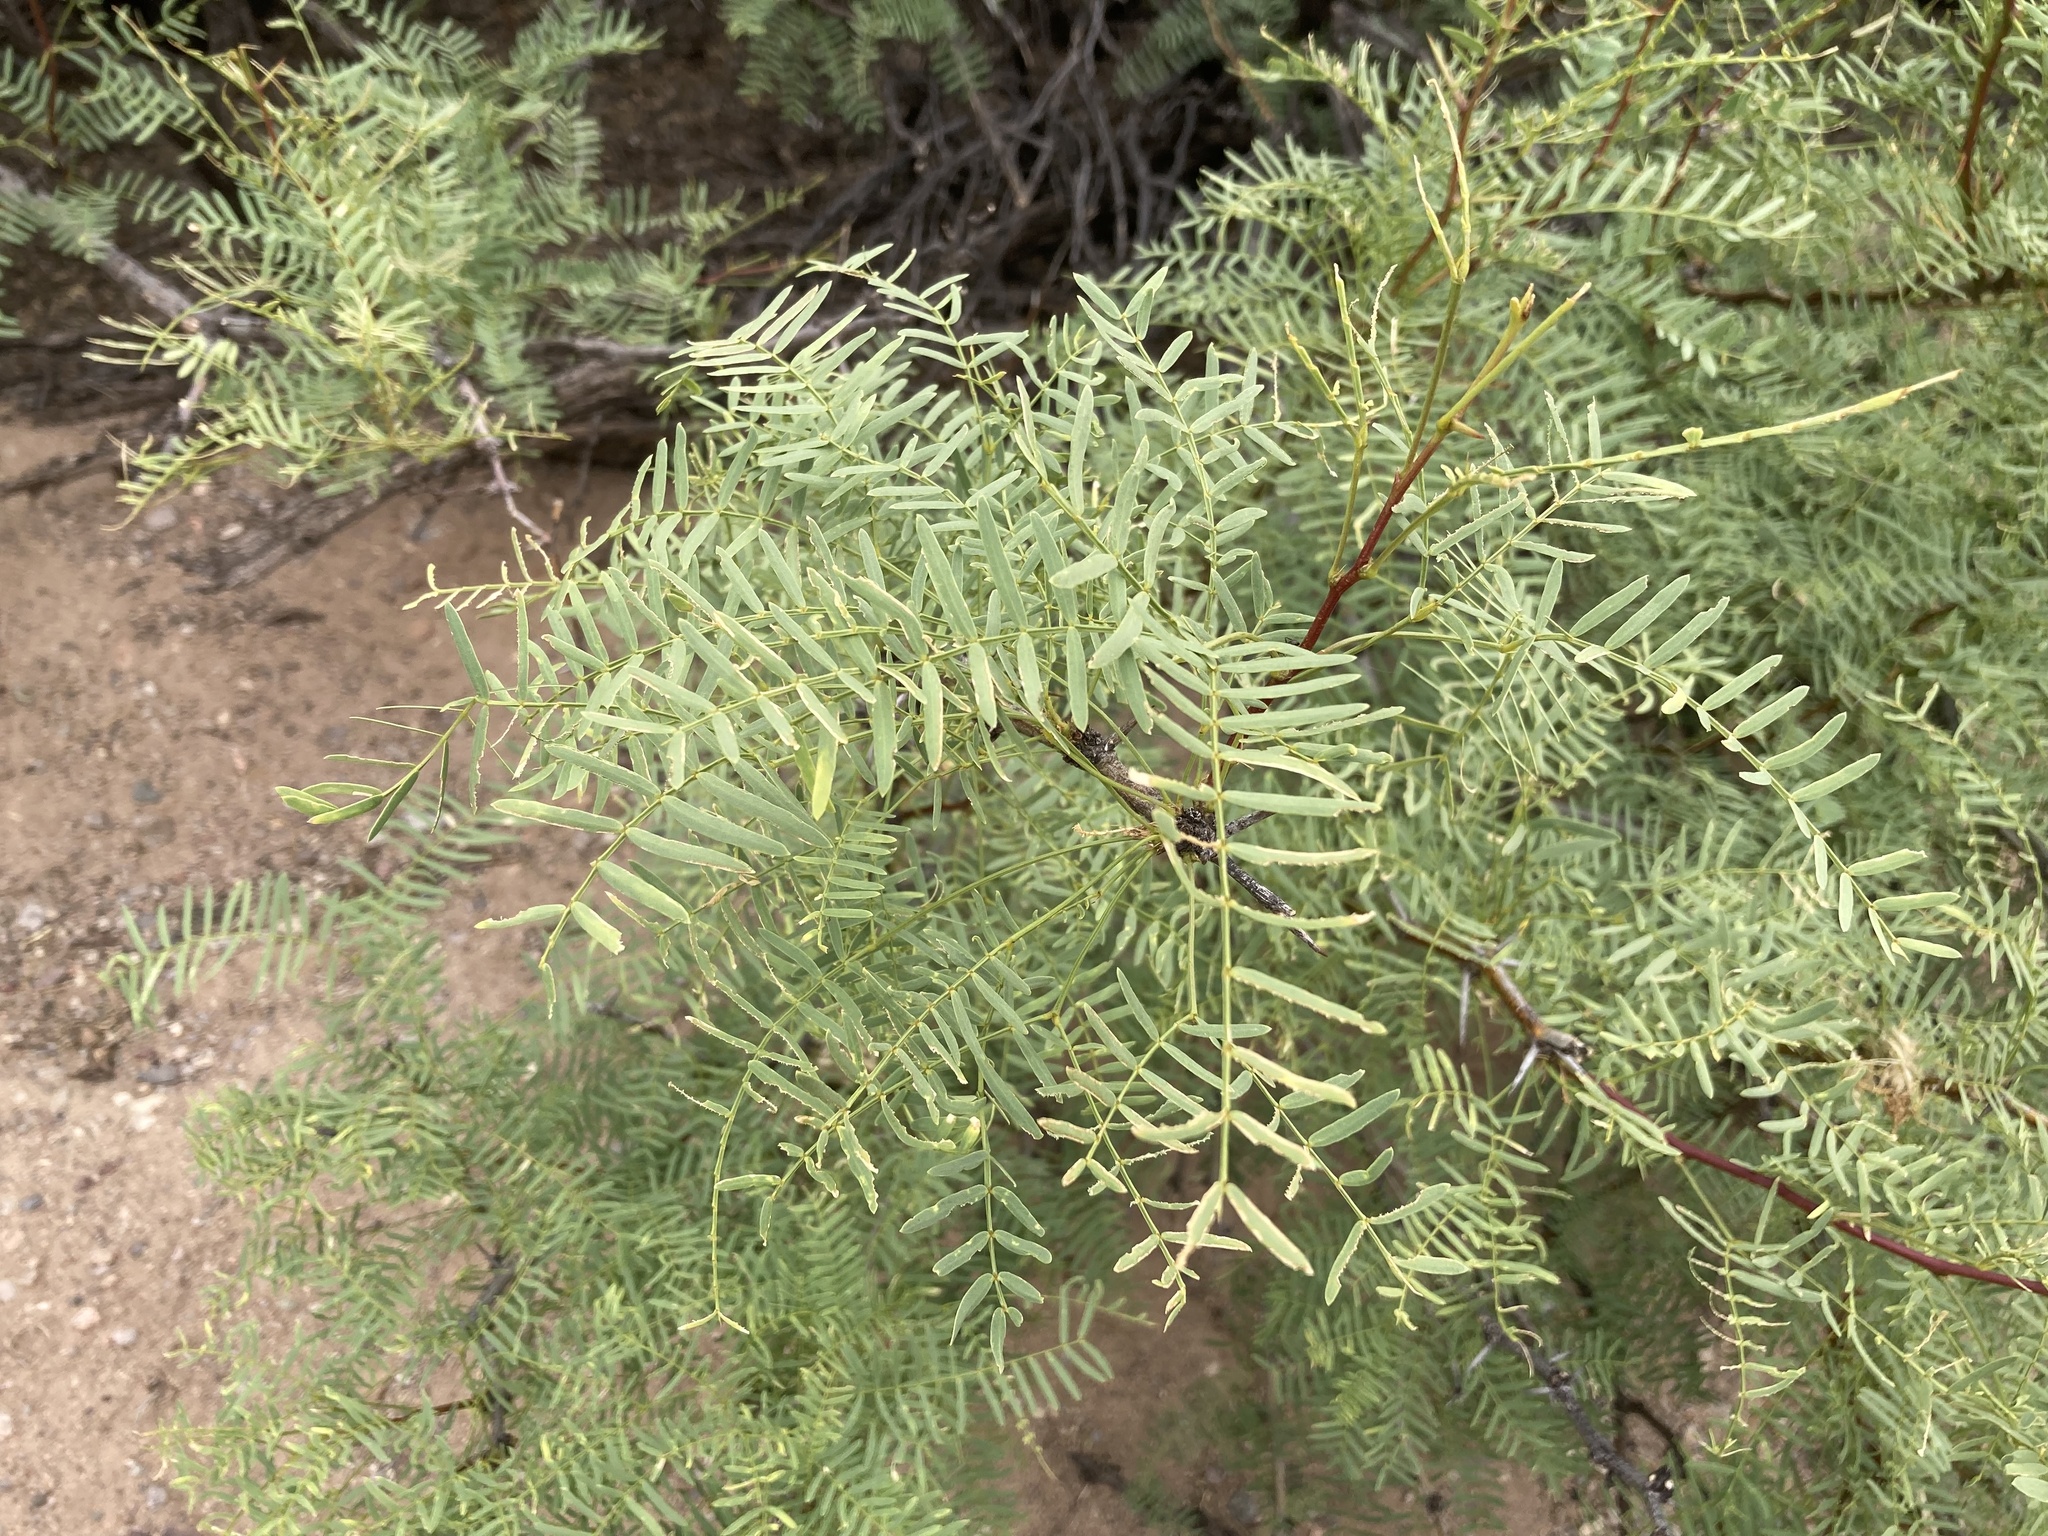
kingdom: Plantae
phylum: Tracheophyta
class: Magnoliopsida
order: Fabales
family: Fabaceae
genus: Prosopis
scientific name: Prosopis glandulosa
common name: Honey mesquite
